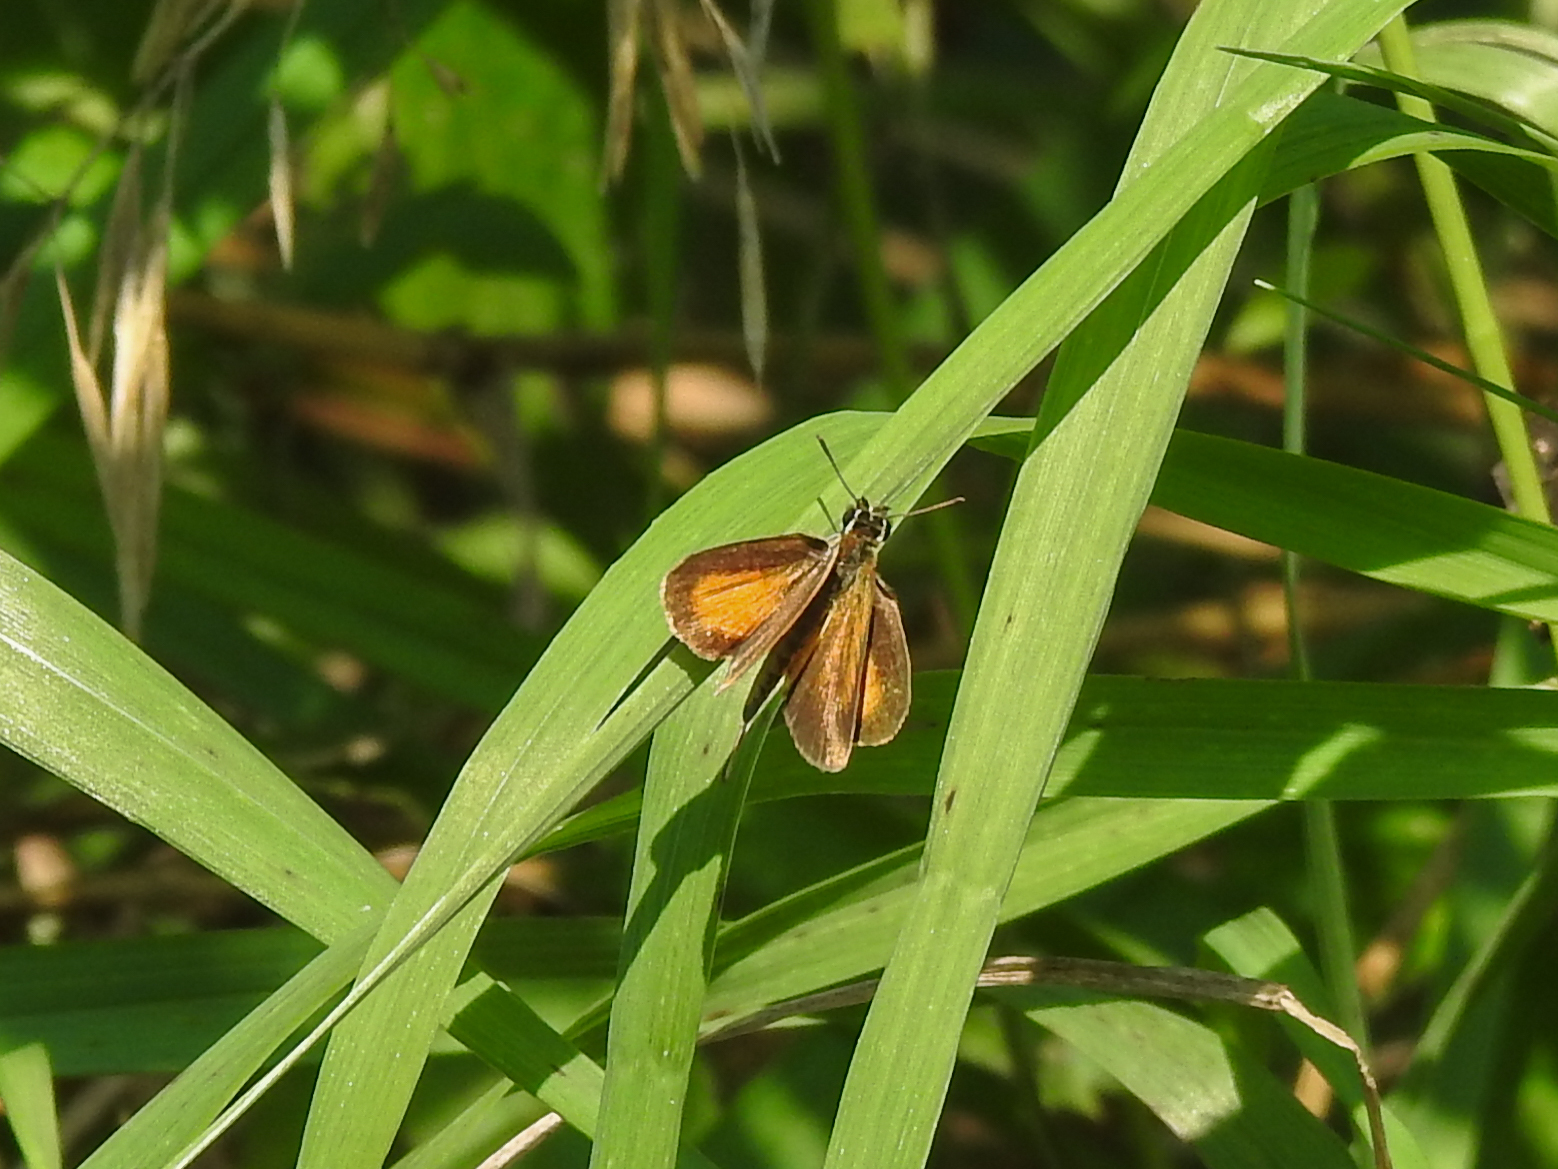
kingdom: Animalia
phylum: Arthropoda
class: Insecta
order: Lepidoptera
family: Hesperiidae
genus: Ancyloxypha
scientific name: Ancyloxypha numitor
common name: Least skipper
